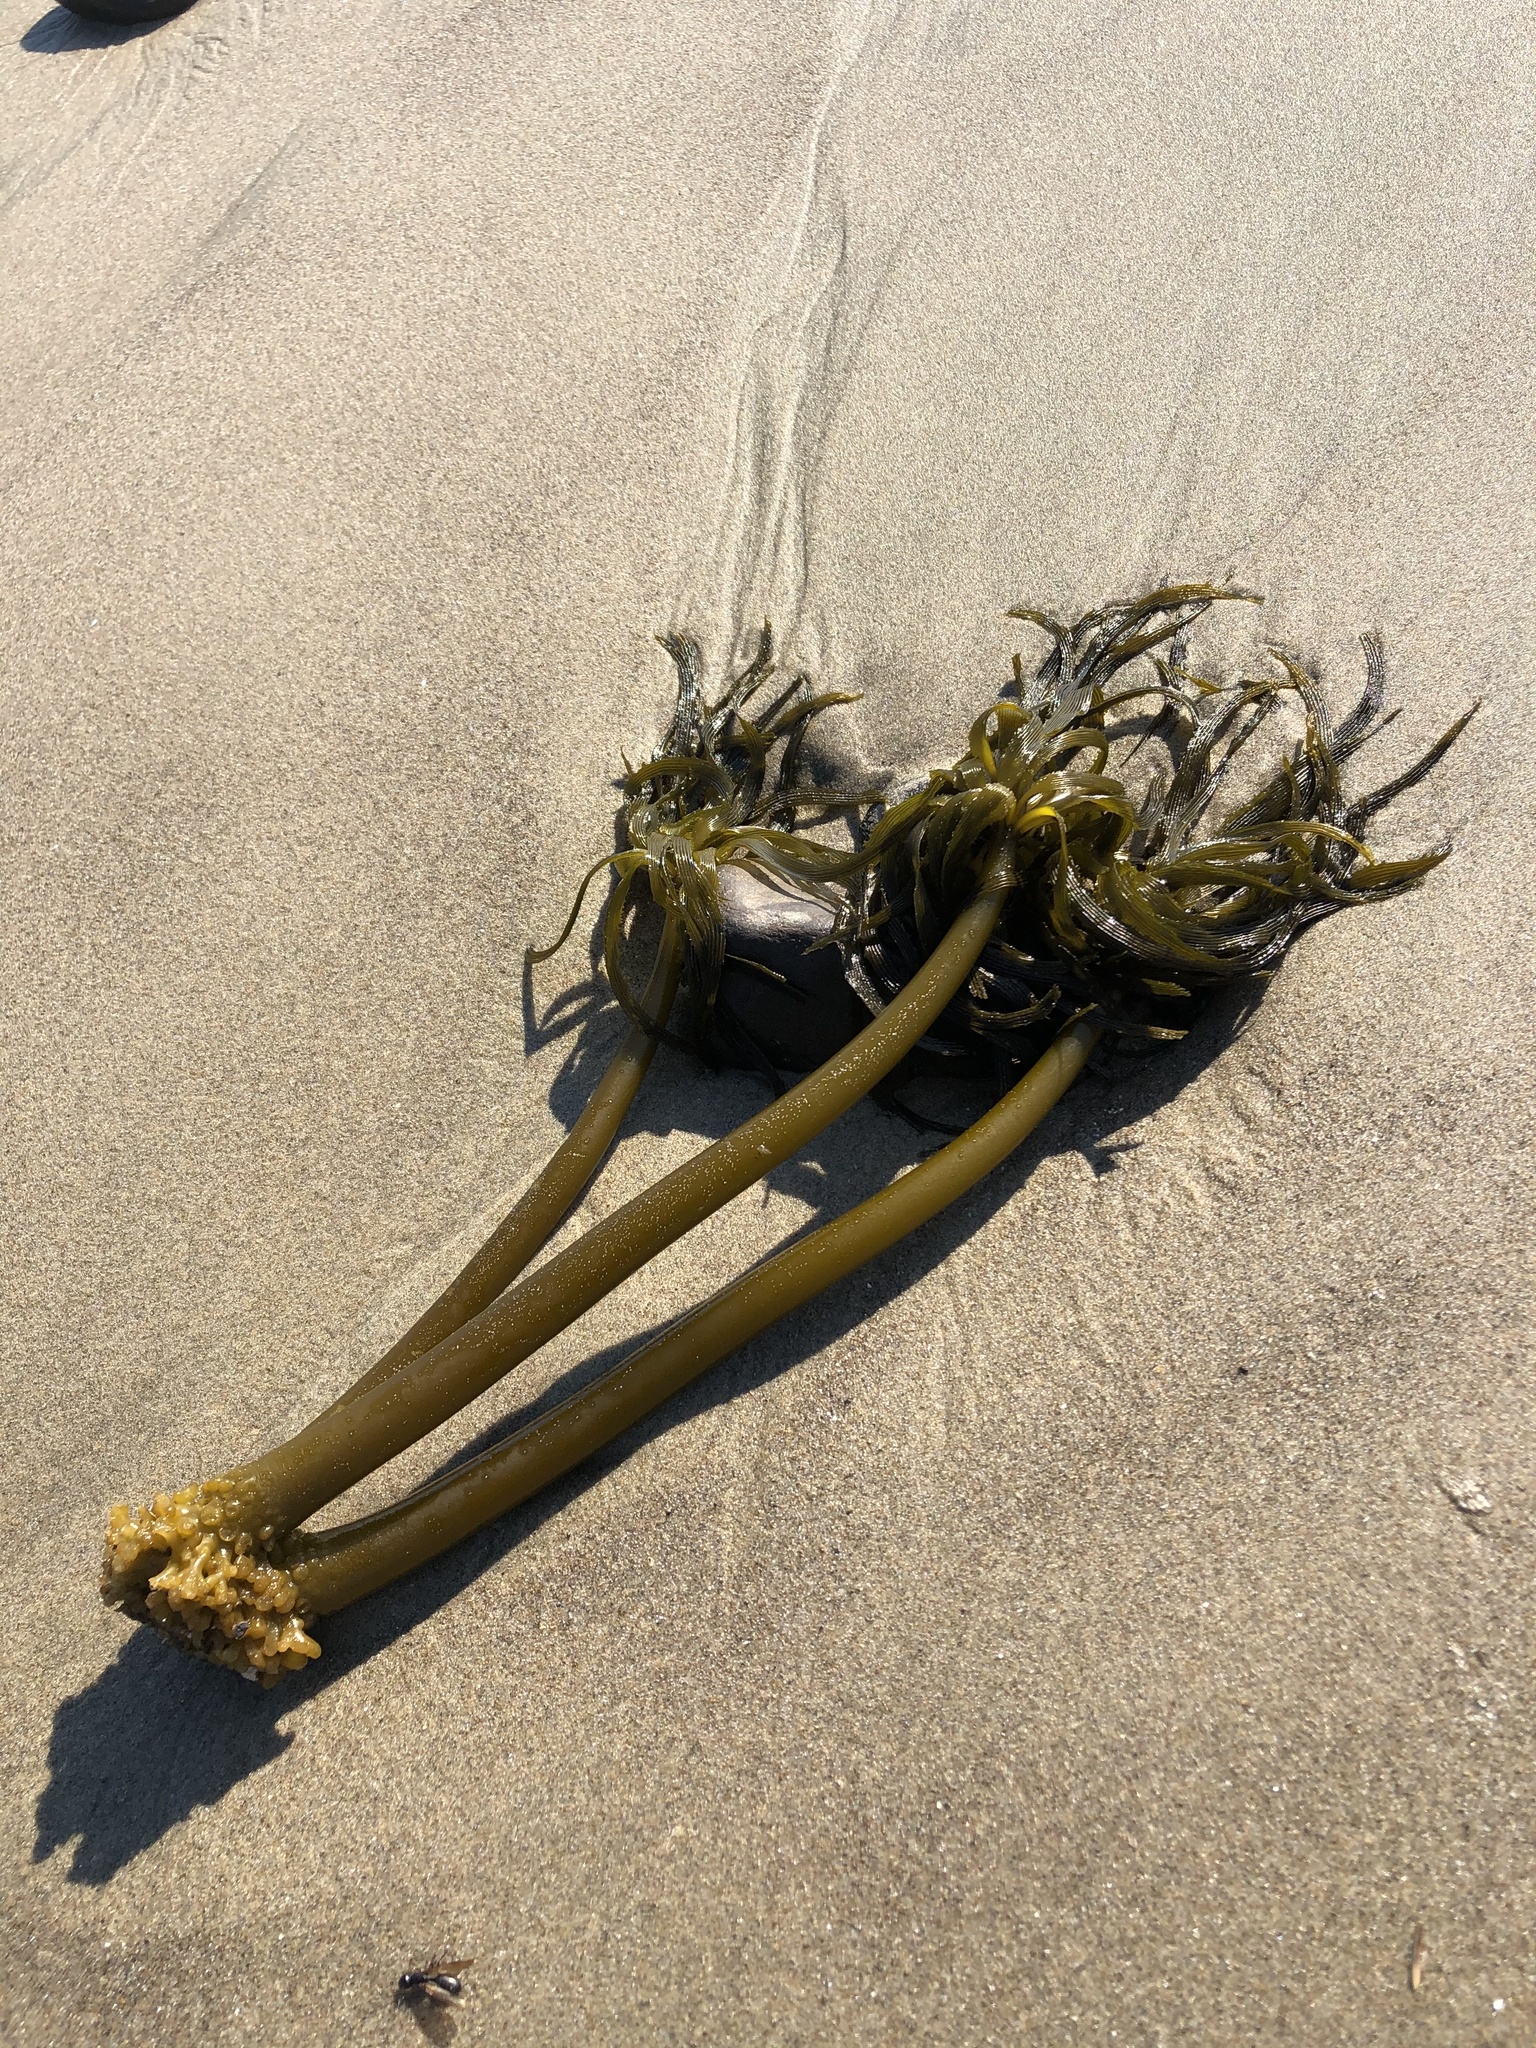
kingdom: Chromista
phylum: Ochrophyta
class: Phaeophyceae
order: Laminariales
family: Laminariaceae
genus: Postelsia
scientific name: Postelsia palmiformis
